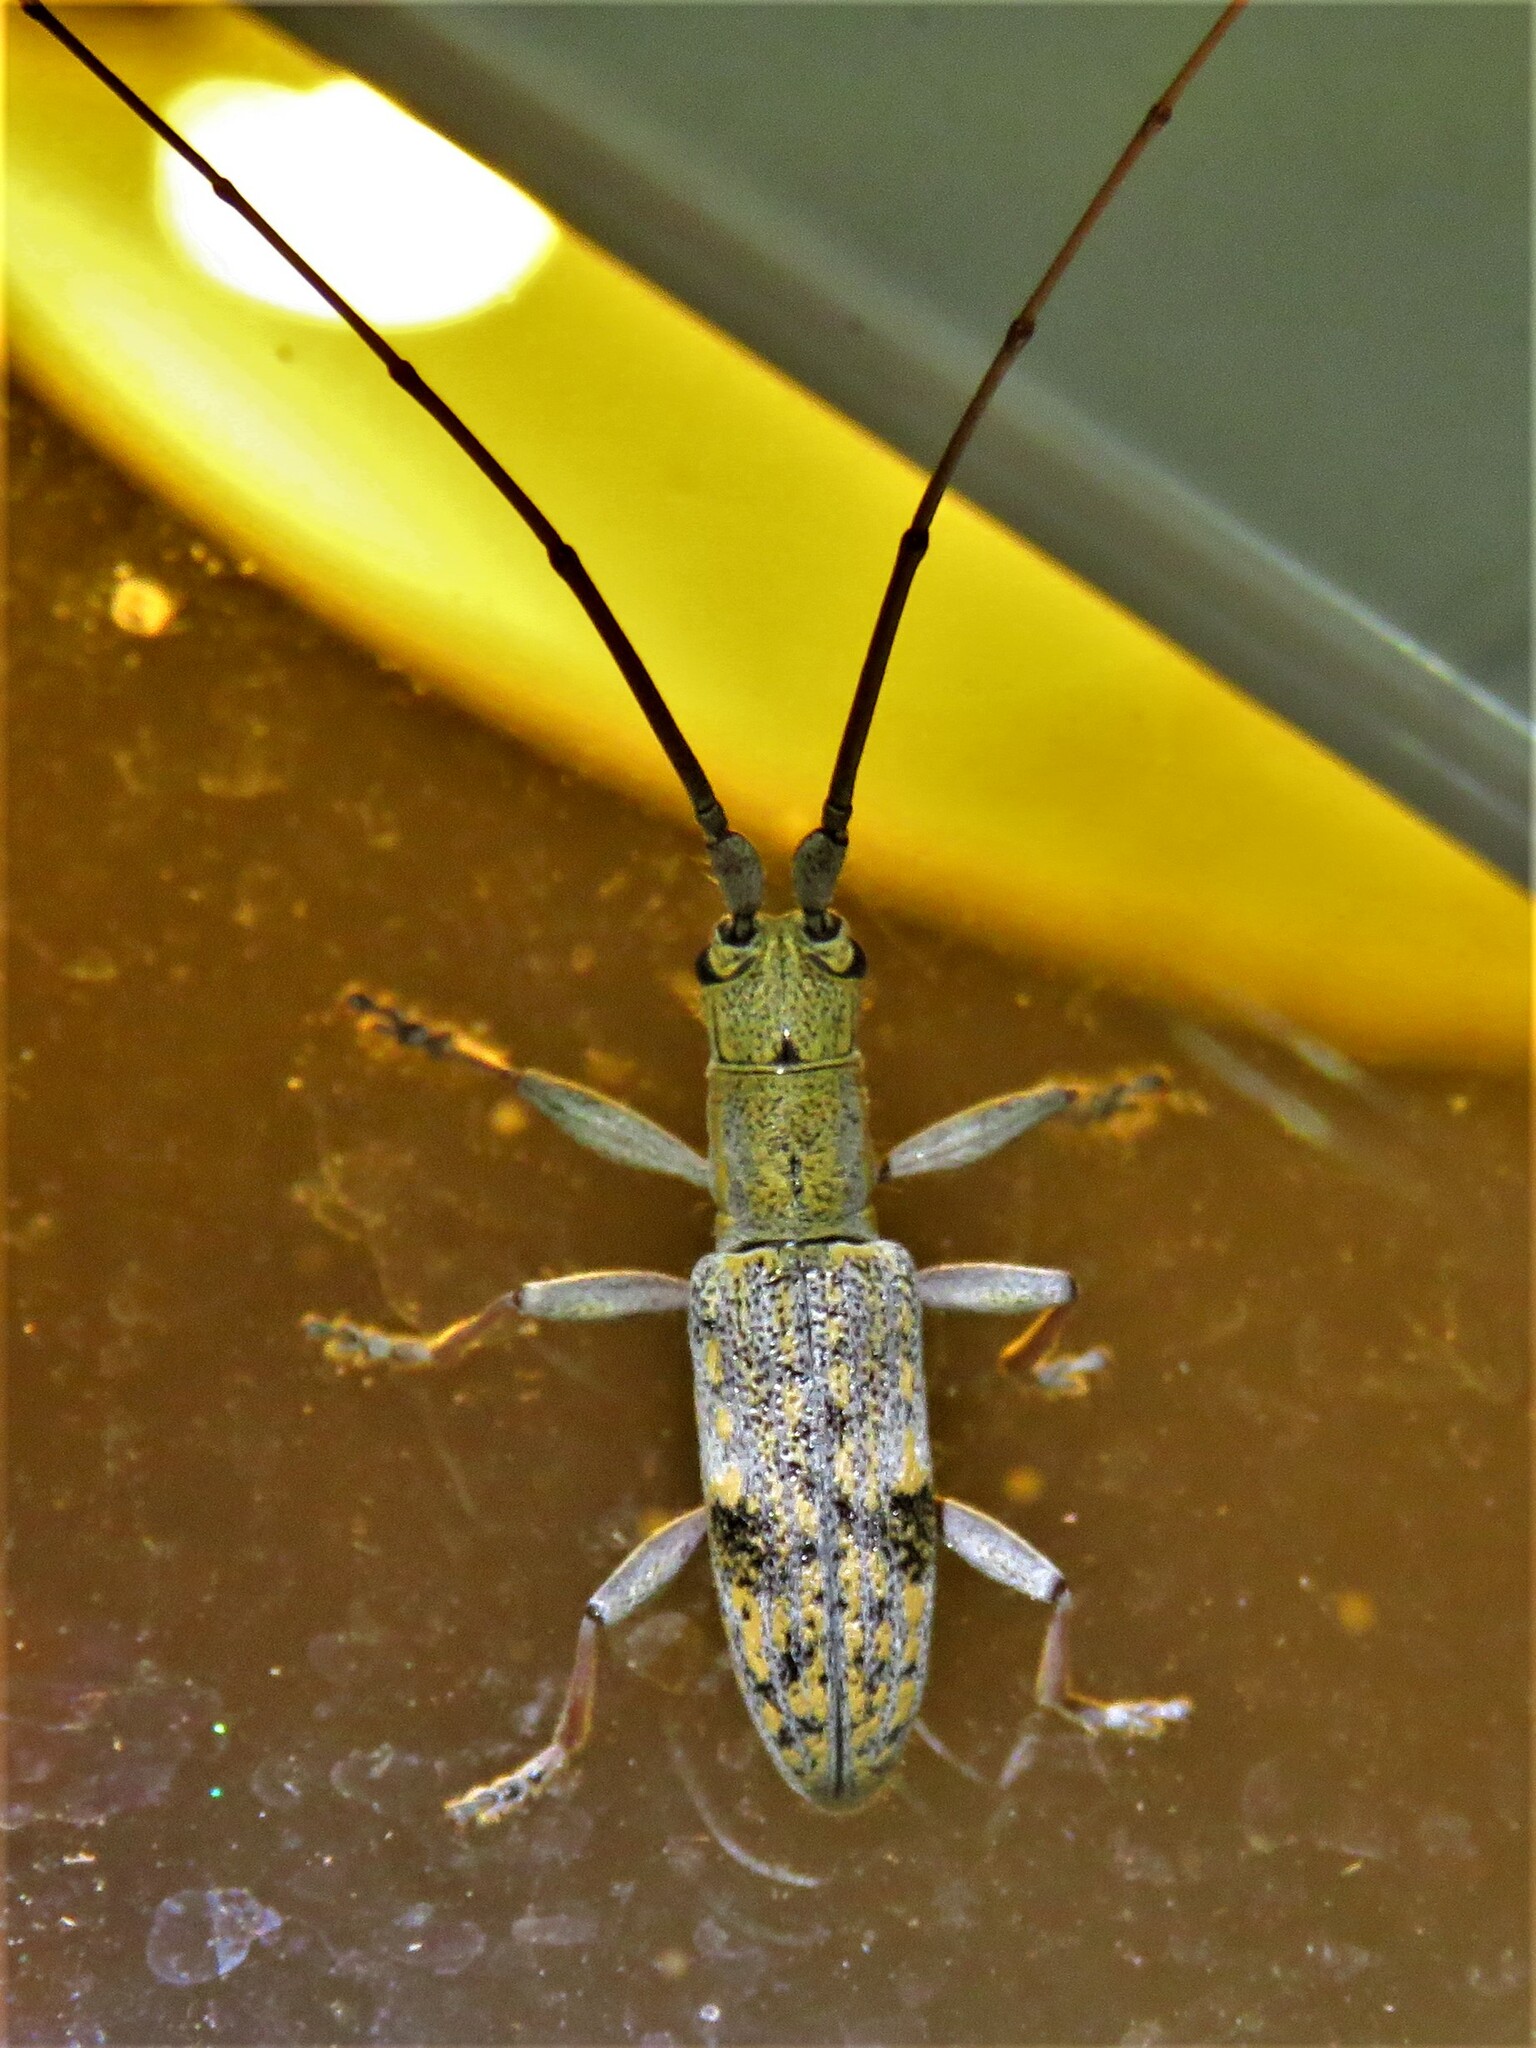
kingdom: Animalia
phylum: Arthropoda
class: Insecta
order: Coleoptera
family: Cerambycidae
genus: Dorcaschema
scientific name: Dorcaschema alternatum
